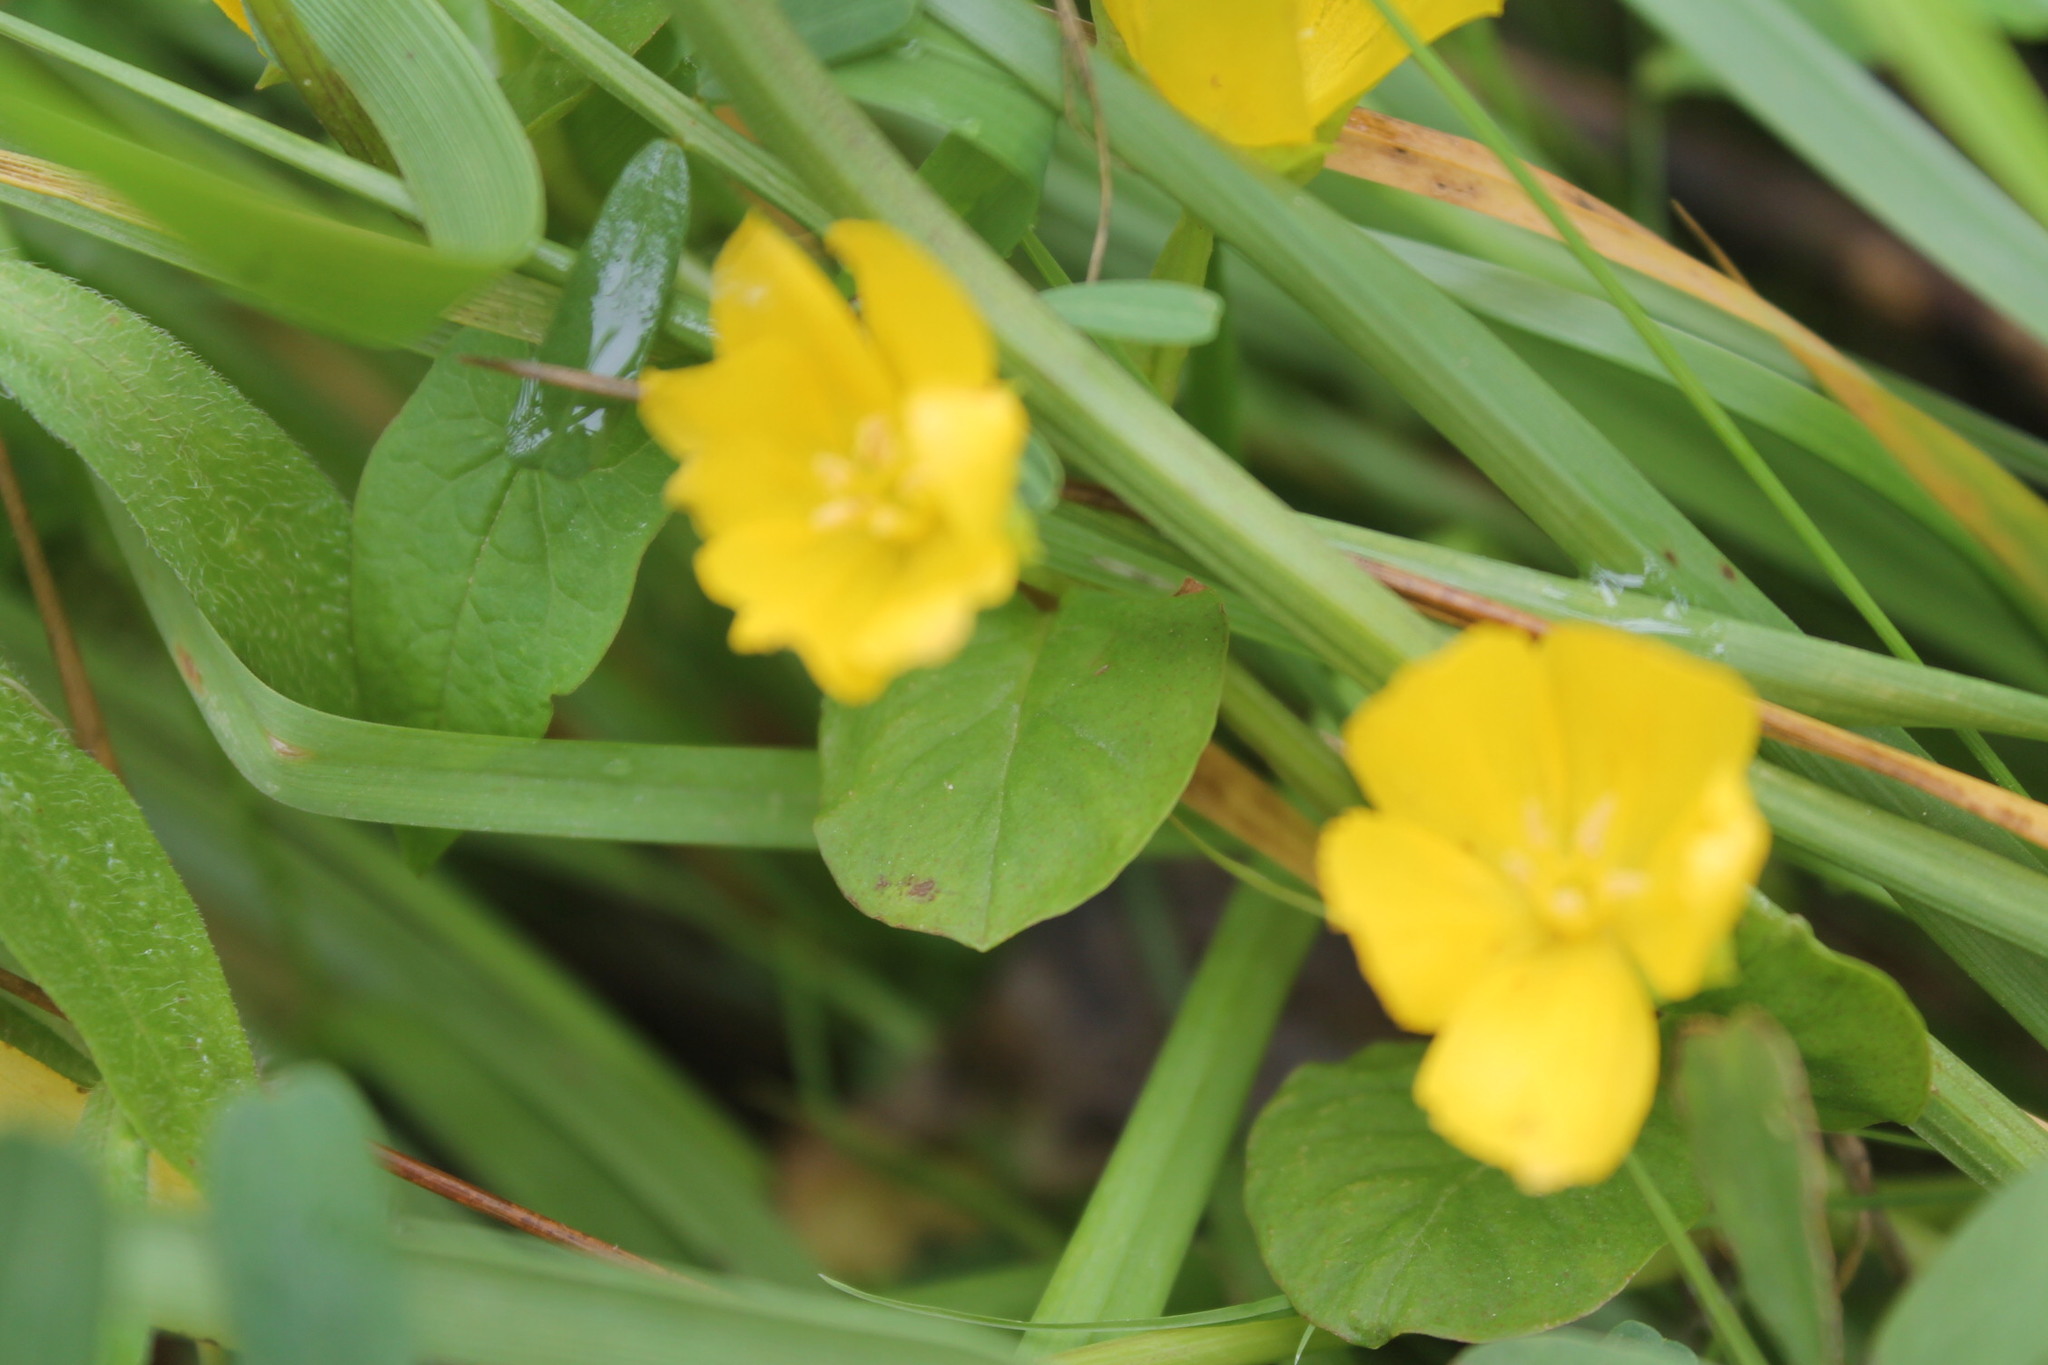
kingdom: Plantae
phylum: Tracheophyta
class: Magnoliopsida
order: Ericales
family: Primulaceae
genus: Lysimachia
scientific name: Lysimachia nummularia
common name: Moneywort
